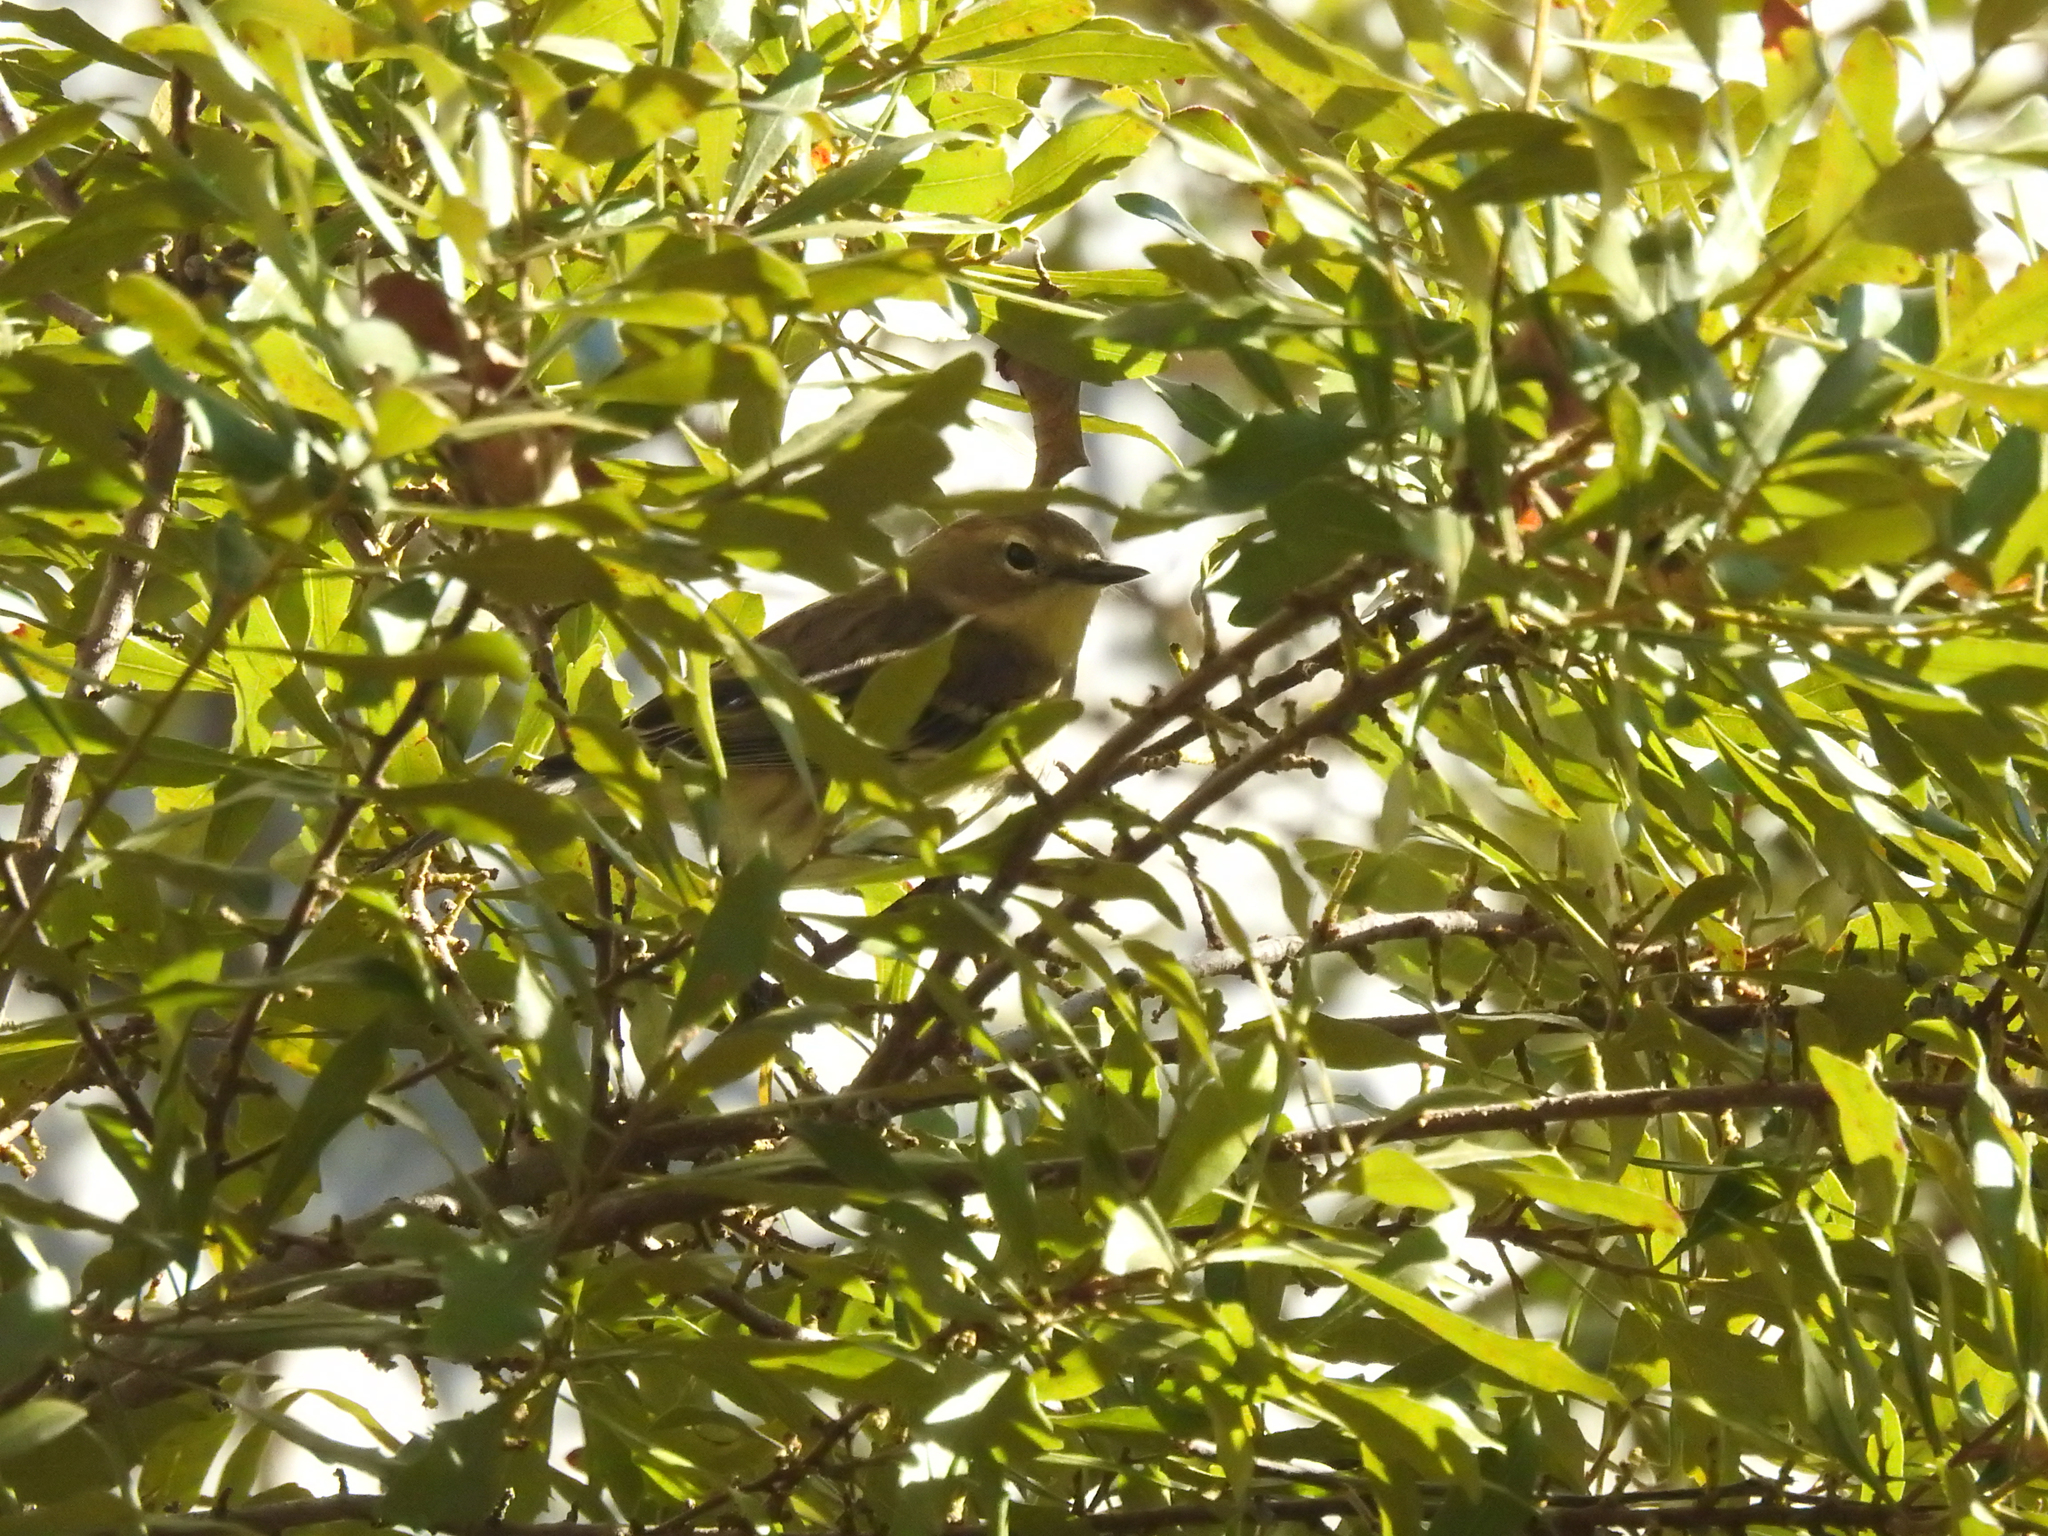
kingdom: Animalia
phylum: Chordata
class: Aves
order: Passeriformes
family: Parulidae
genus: Setophaga
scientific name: Setophaga coronata
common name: Myrtle warbler
